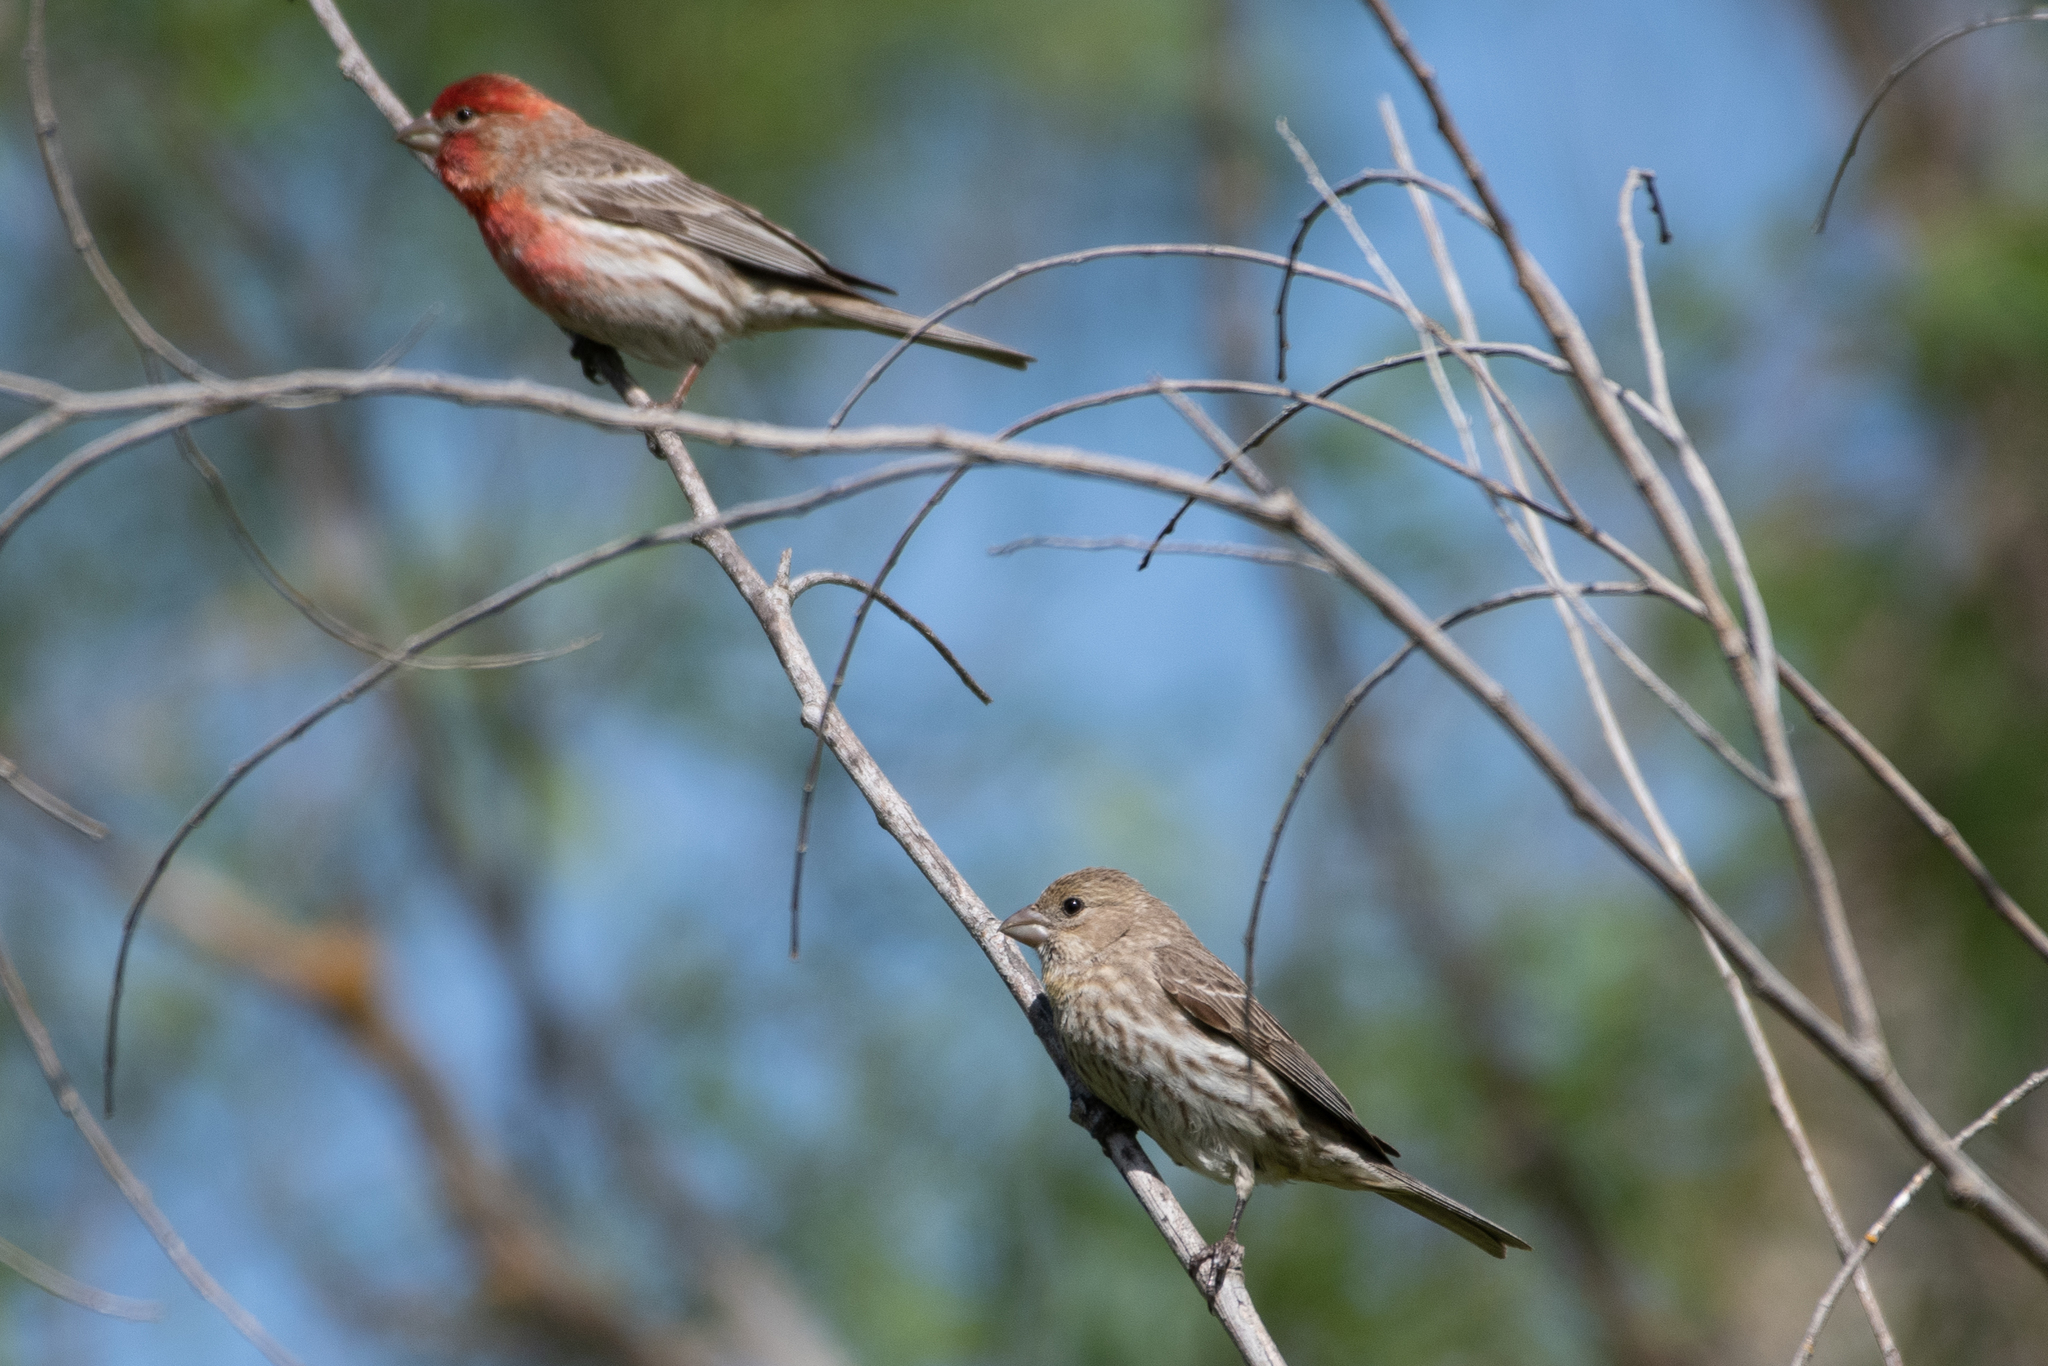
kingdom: Animalia
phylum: Chordata
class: Aves
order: Passeriformes
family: Fringillidae
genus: Haemorhous
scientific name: Haemorhous mexicanus
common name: House finch
